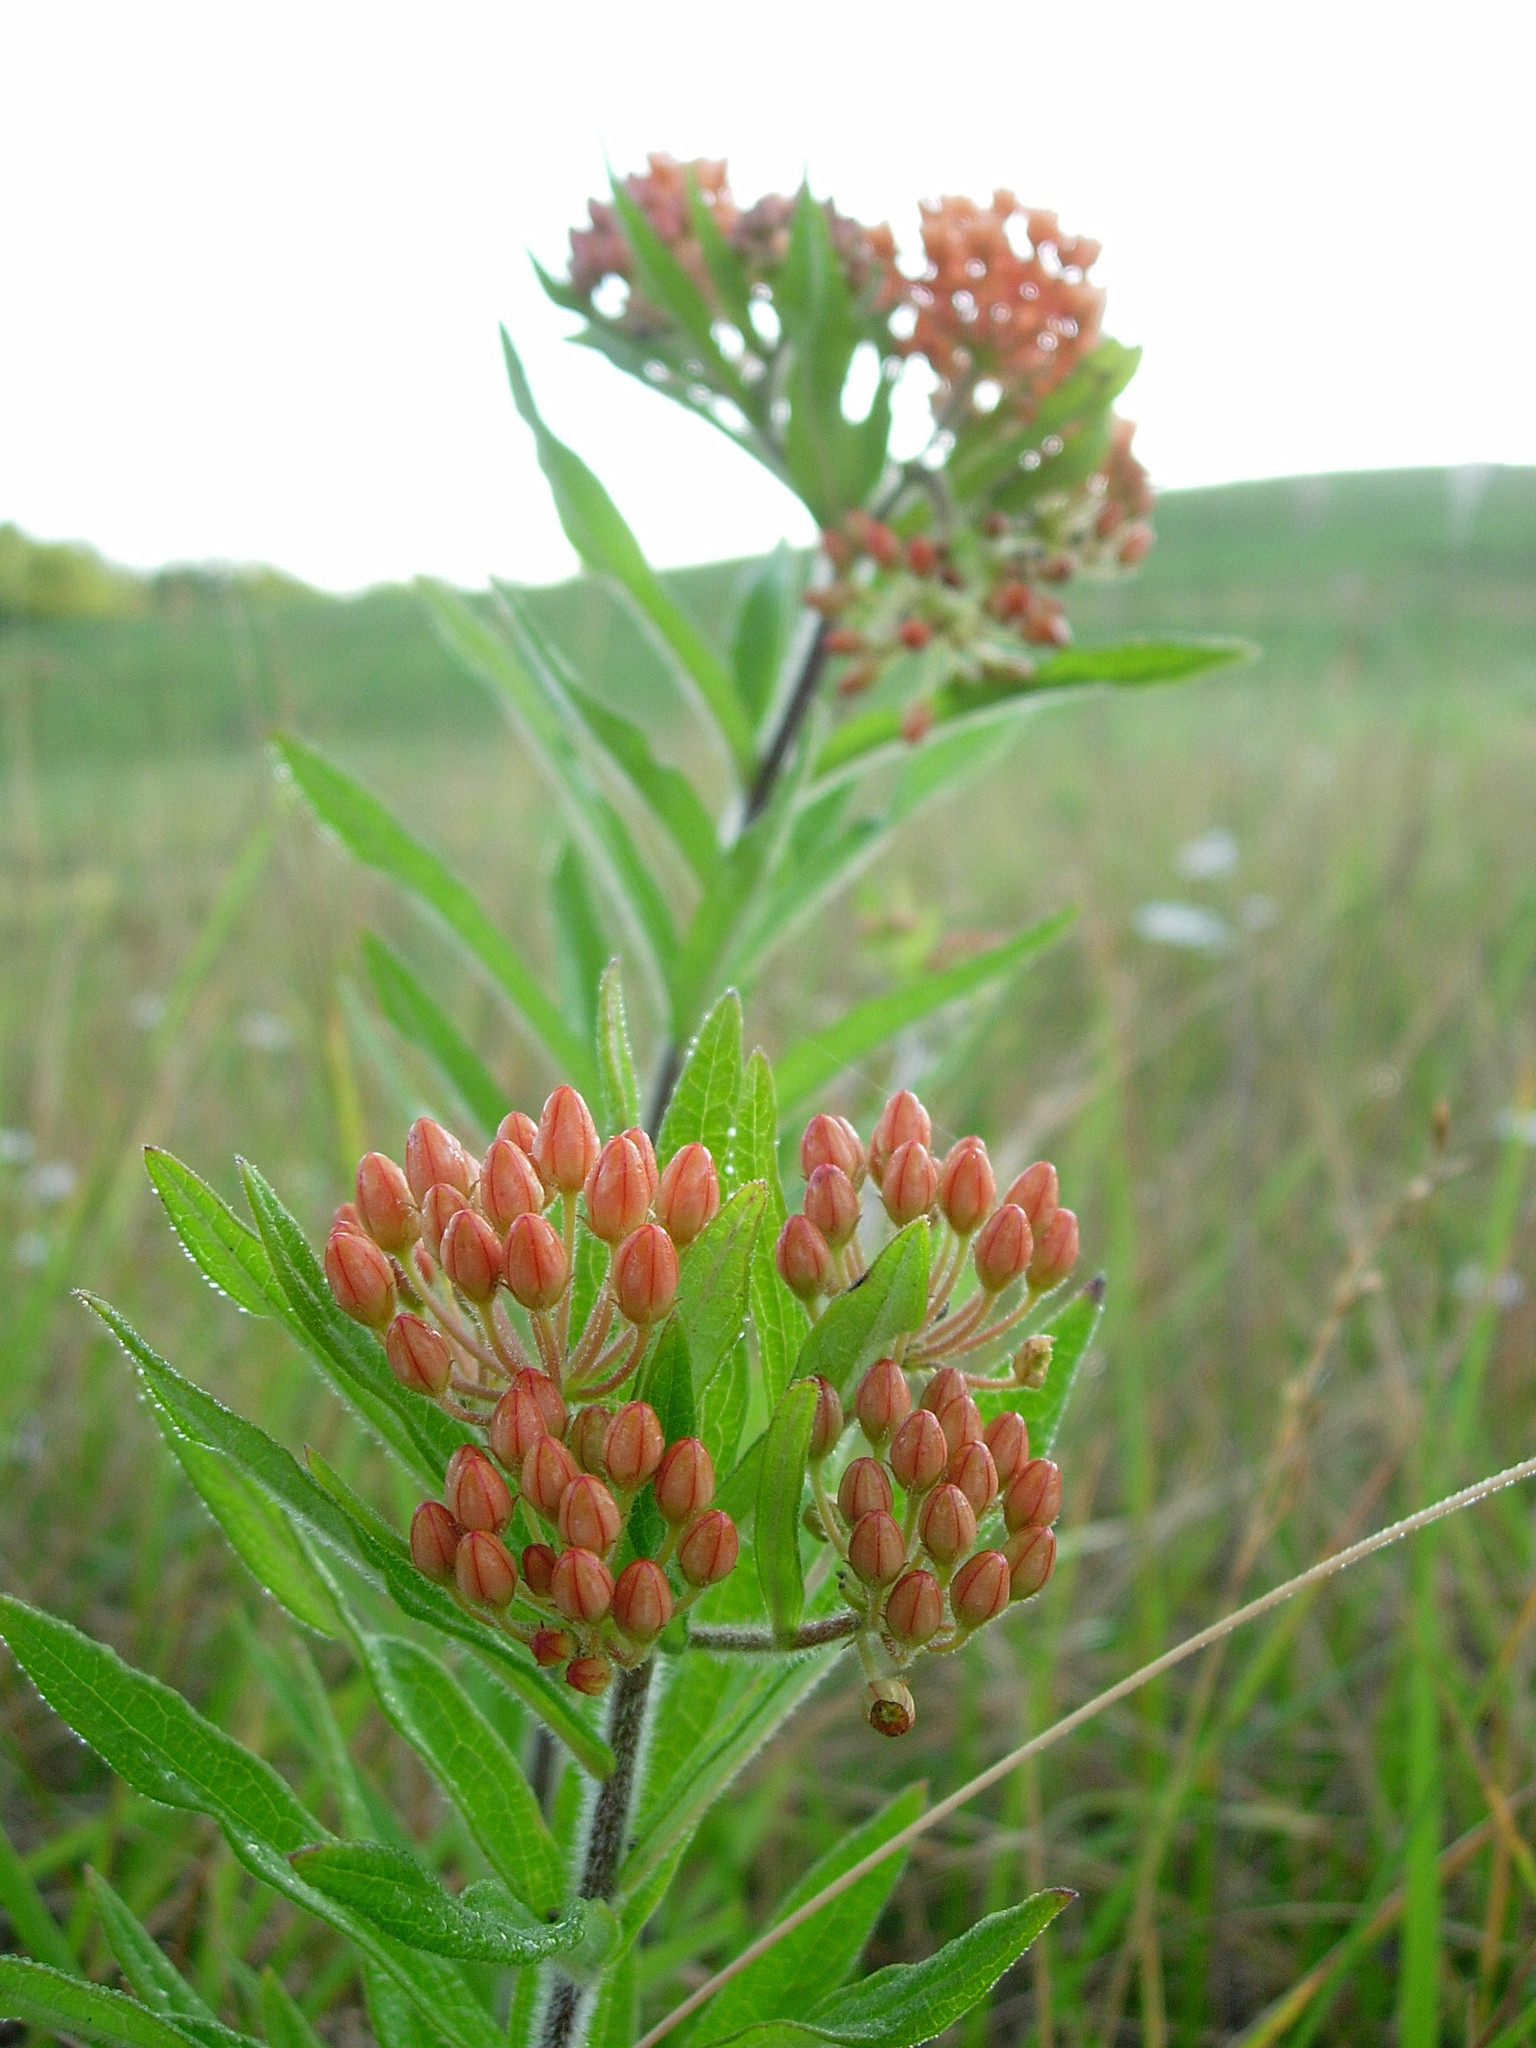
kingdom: Plantae
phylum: Tracheophyta
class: Magnoliopsida
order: Gentianales
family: Apocynaceae
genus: Asclepias
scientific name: Asclepias tuberosa
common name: Butterfly milkweed
